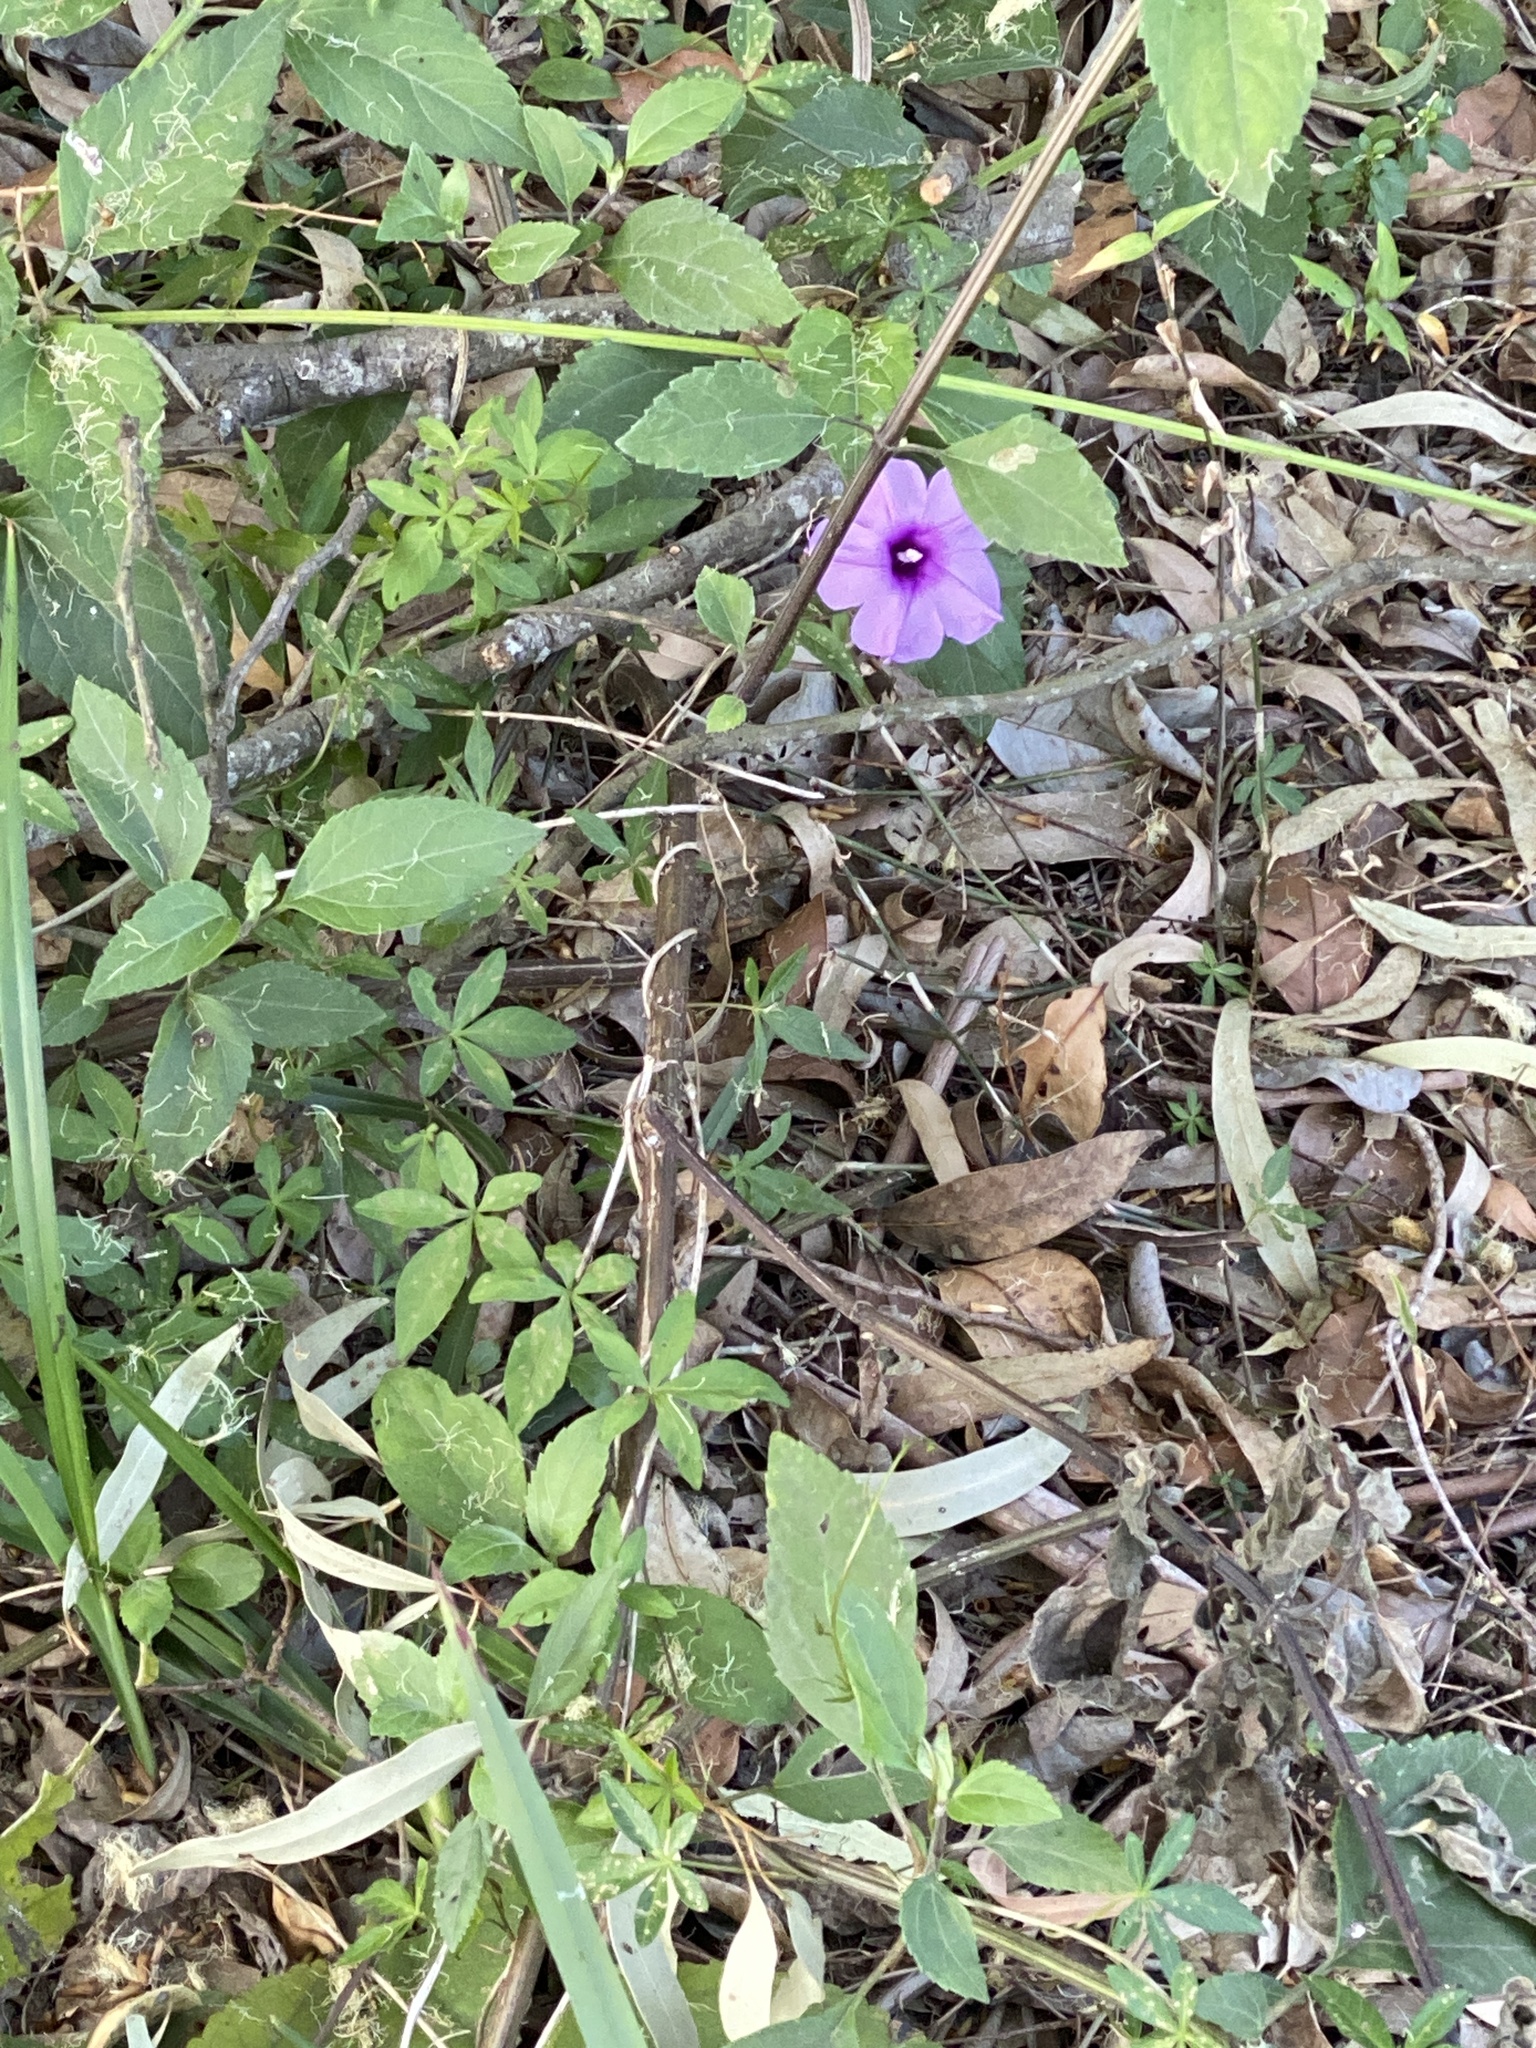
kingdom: Plantae
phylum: Tracheophyta
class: Magnoliopsida
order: Solanales
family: Convolvulaceae
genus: Ipomoea
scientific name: Ipomoea cairica
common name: Mile a minute vine
